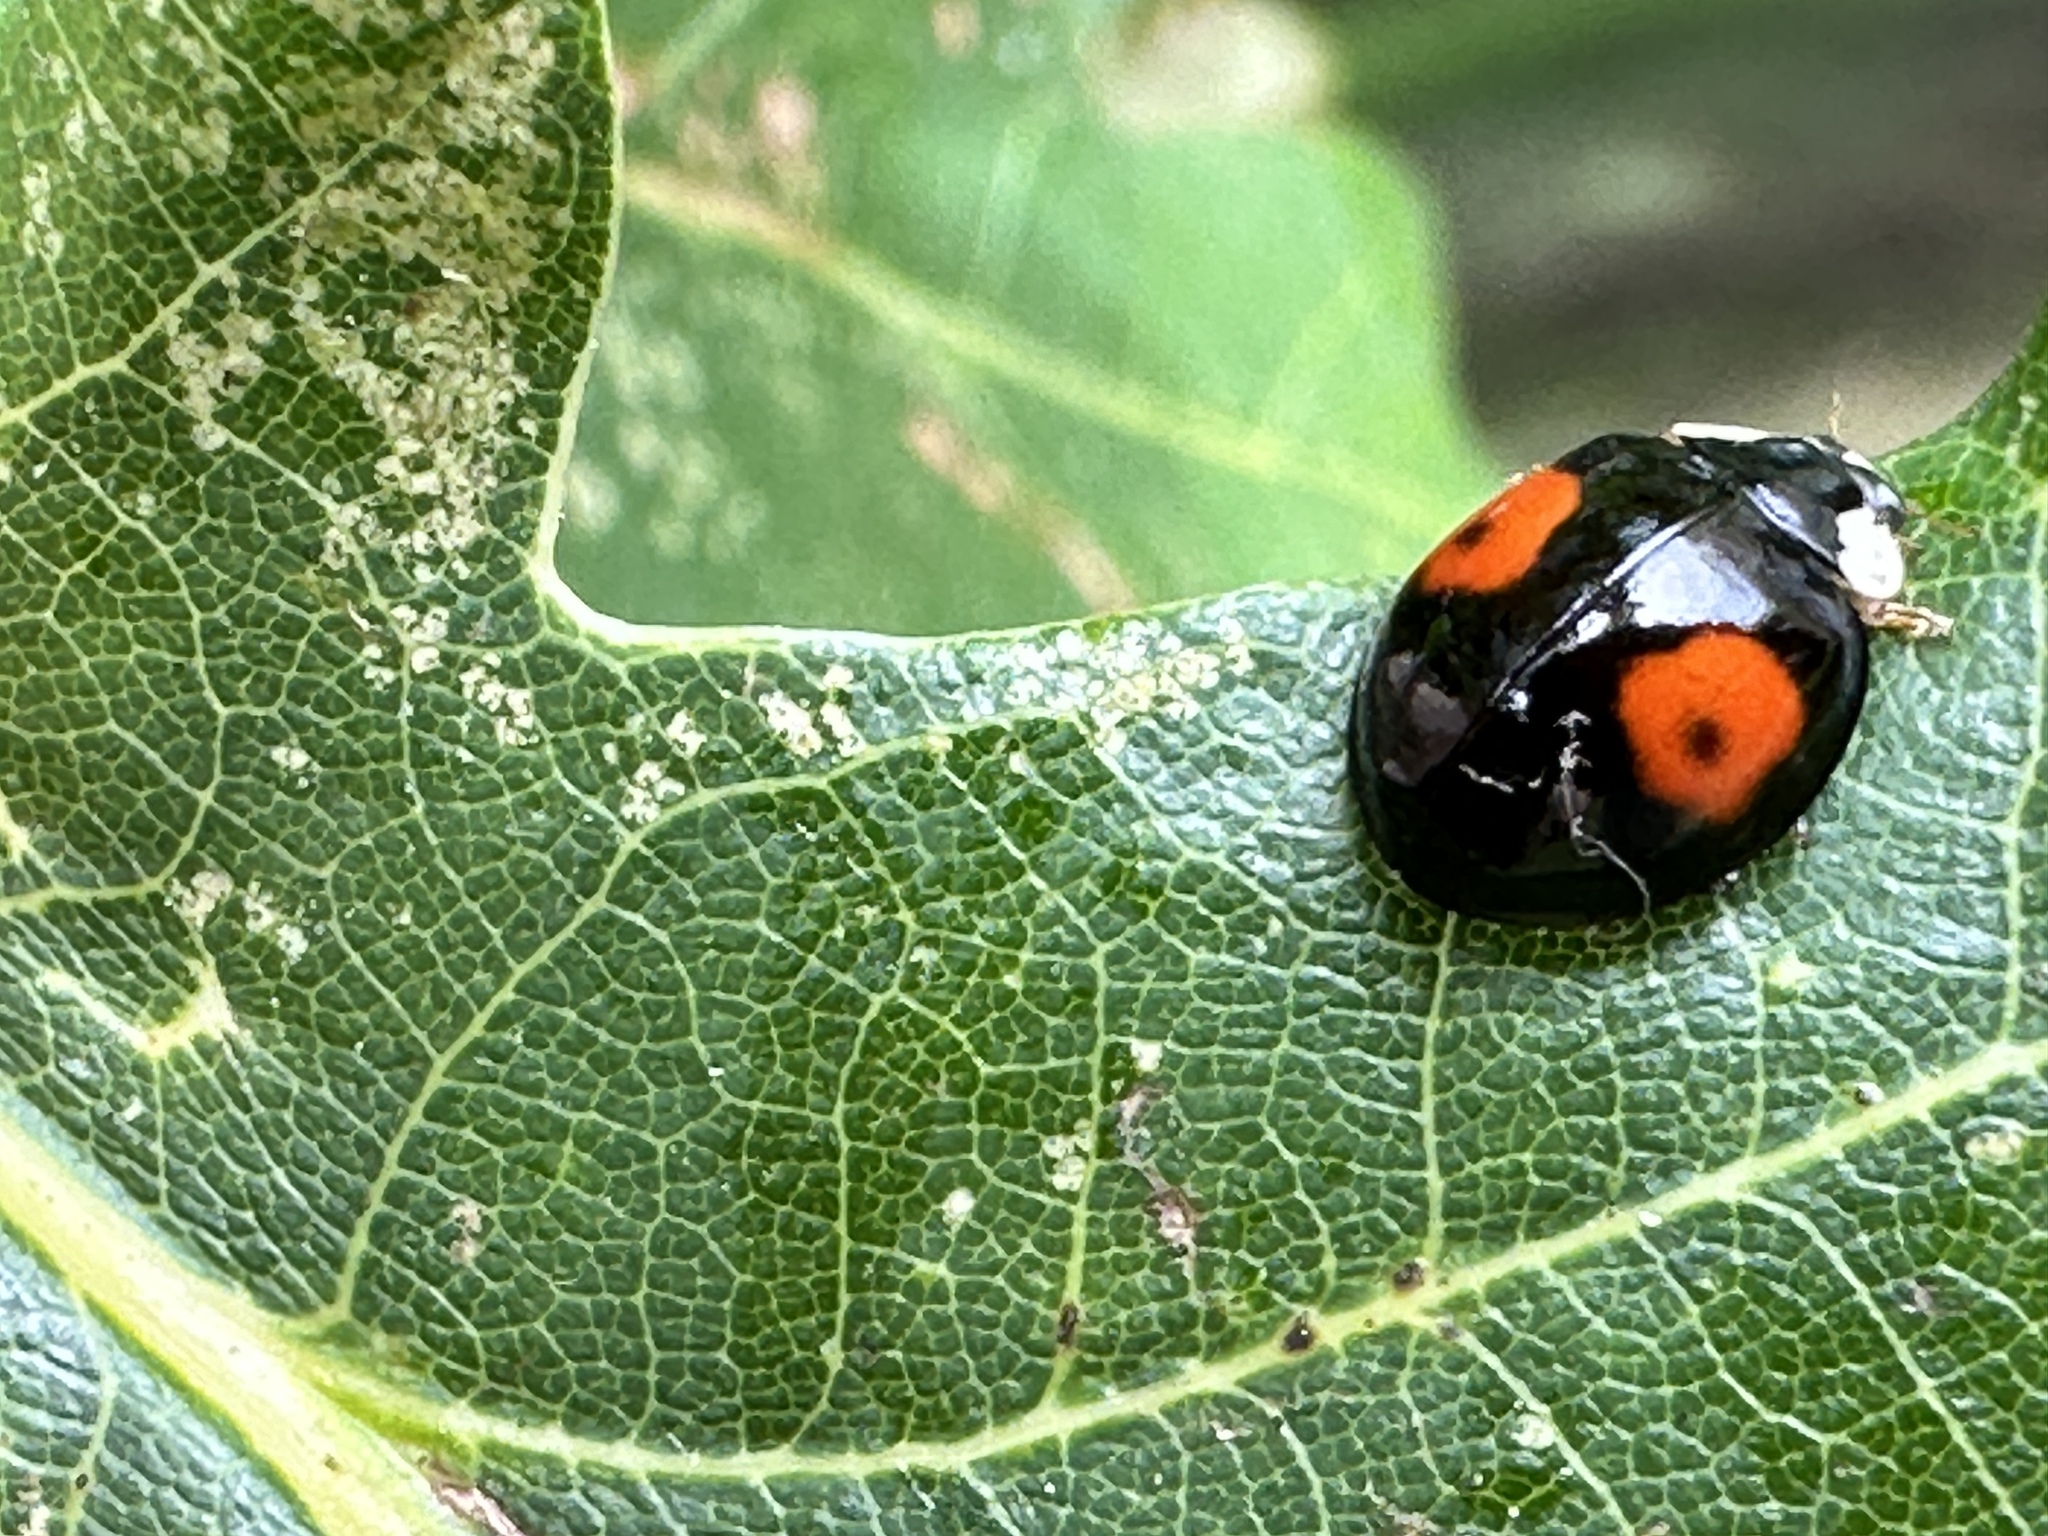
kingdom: Animalia
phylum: Arthropoda
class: Insecta
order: Coleoptera
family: Coccinellidae
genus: Harmonia
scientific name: Harmonia axyridis
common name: Harlequin ladybird
